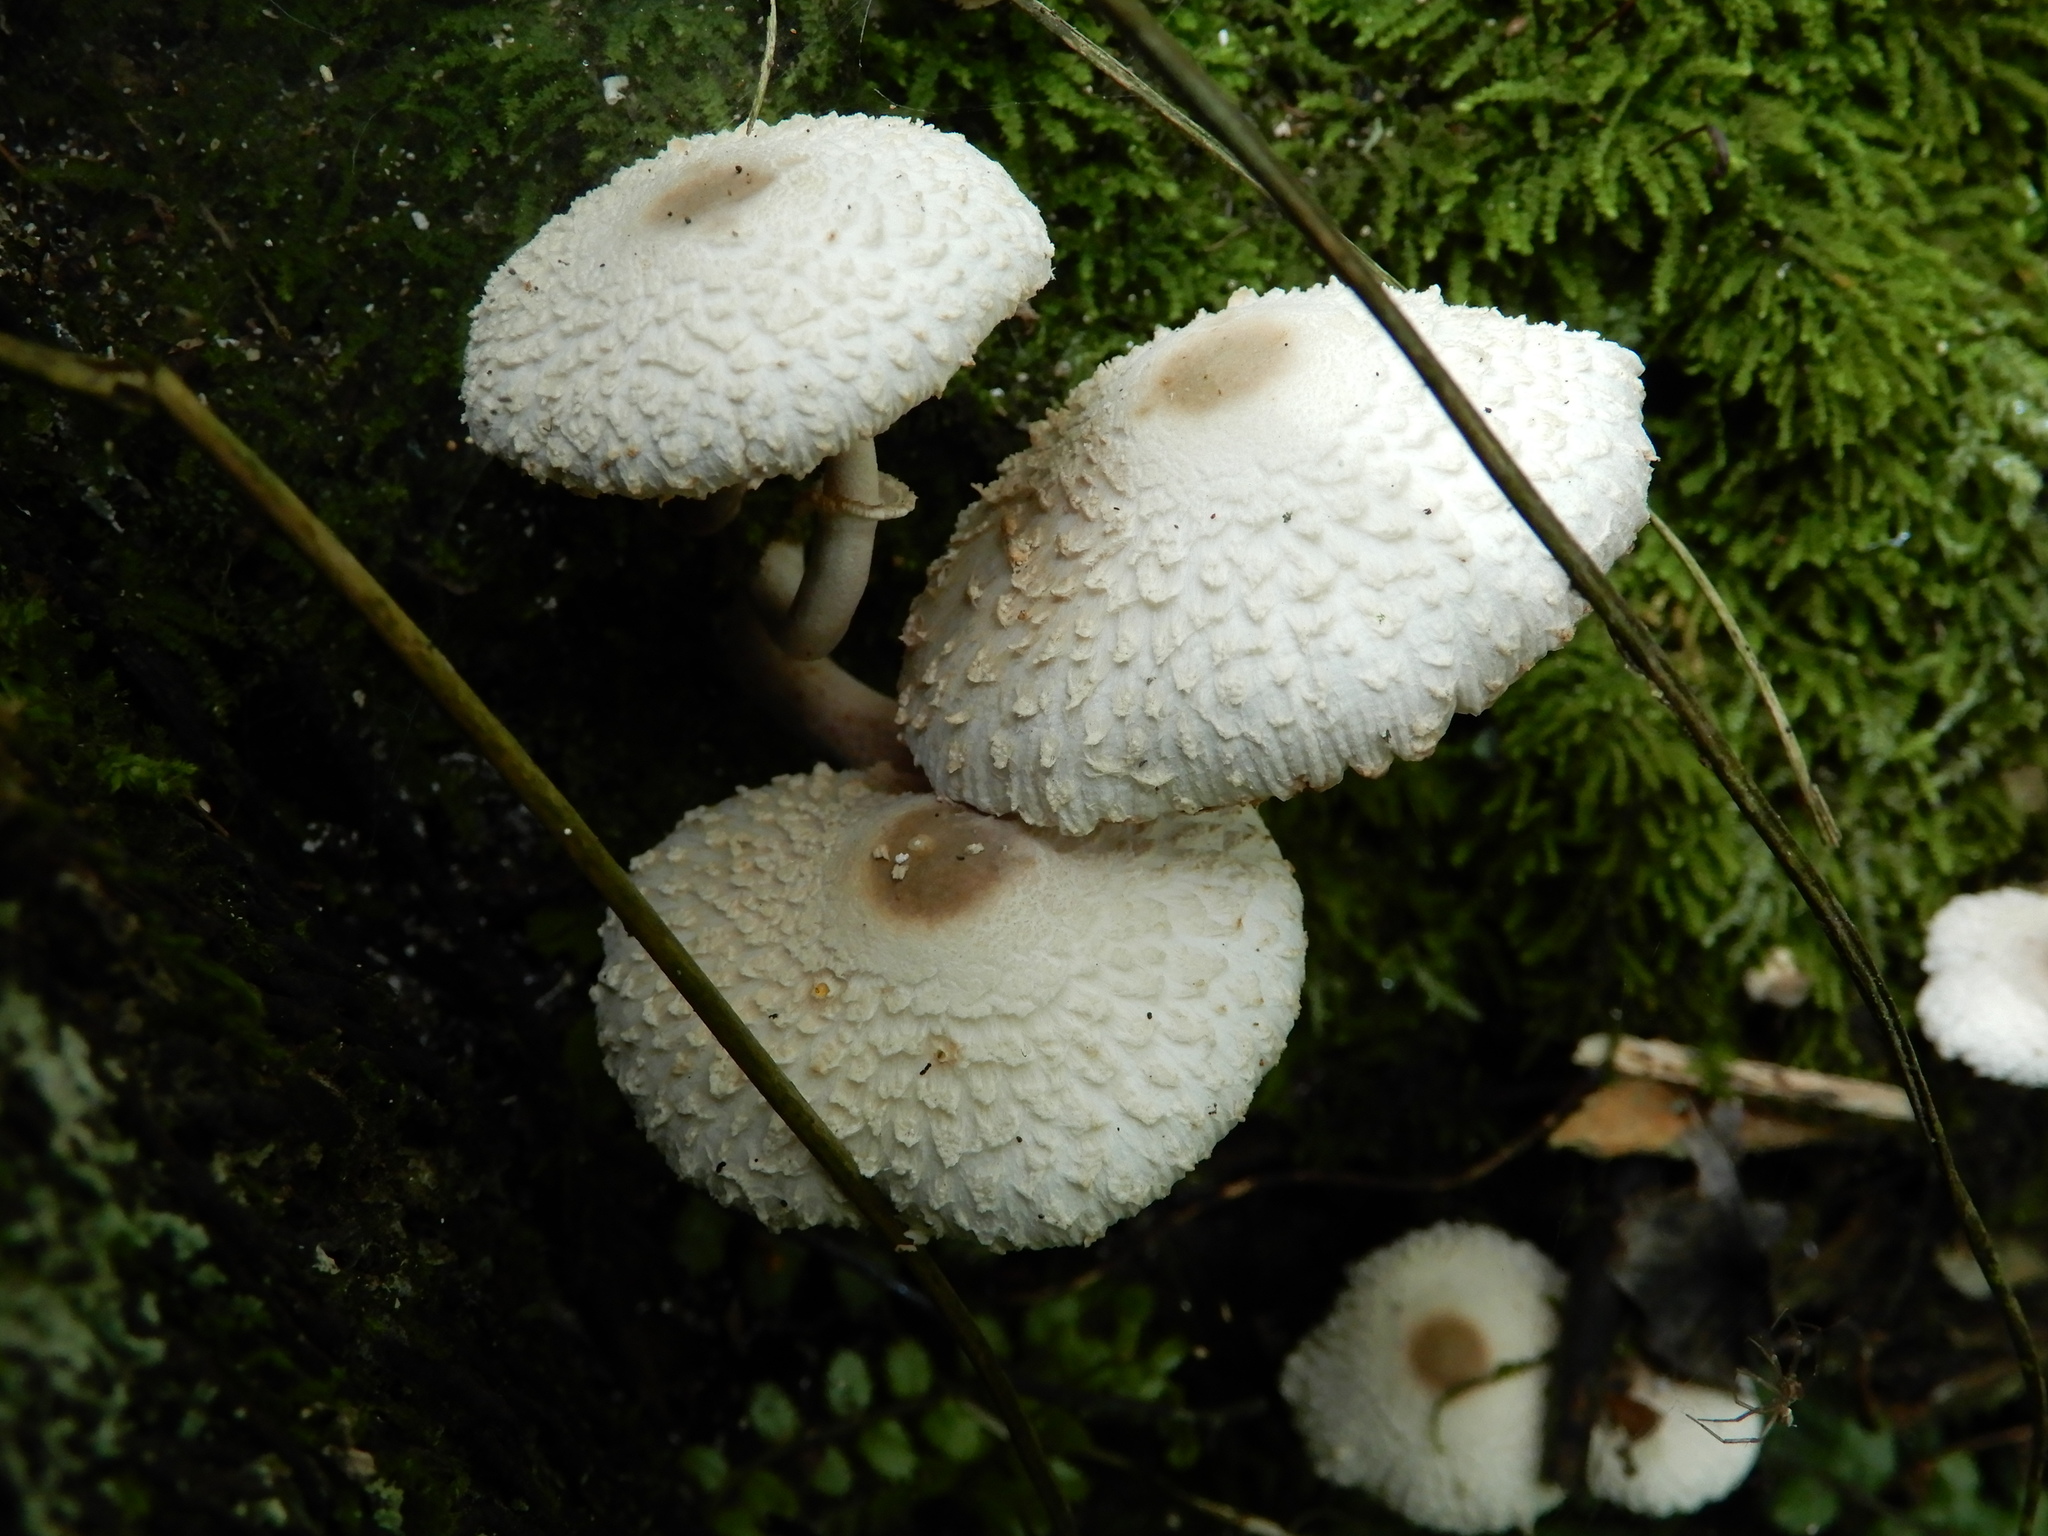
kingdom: Fungi
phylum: Basidiomycota
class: Agaricomycetes
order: Agaricales
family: Agaricaceae
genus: Leucocoprinus
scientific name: Leucocoprinus cepistipes
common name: Onion-stalk parasol
